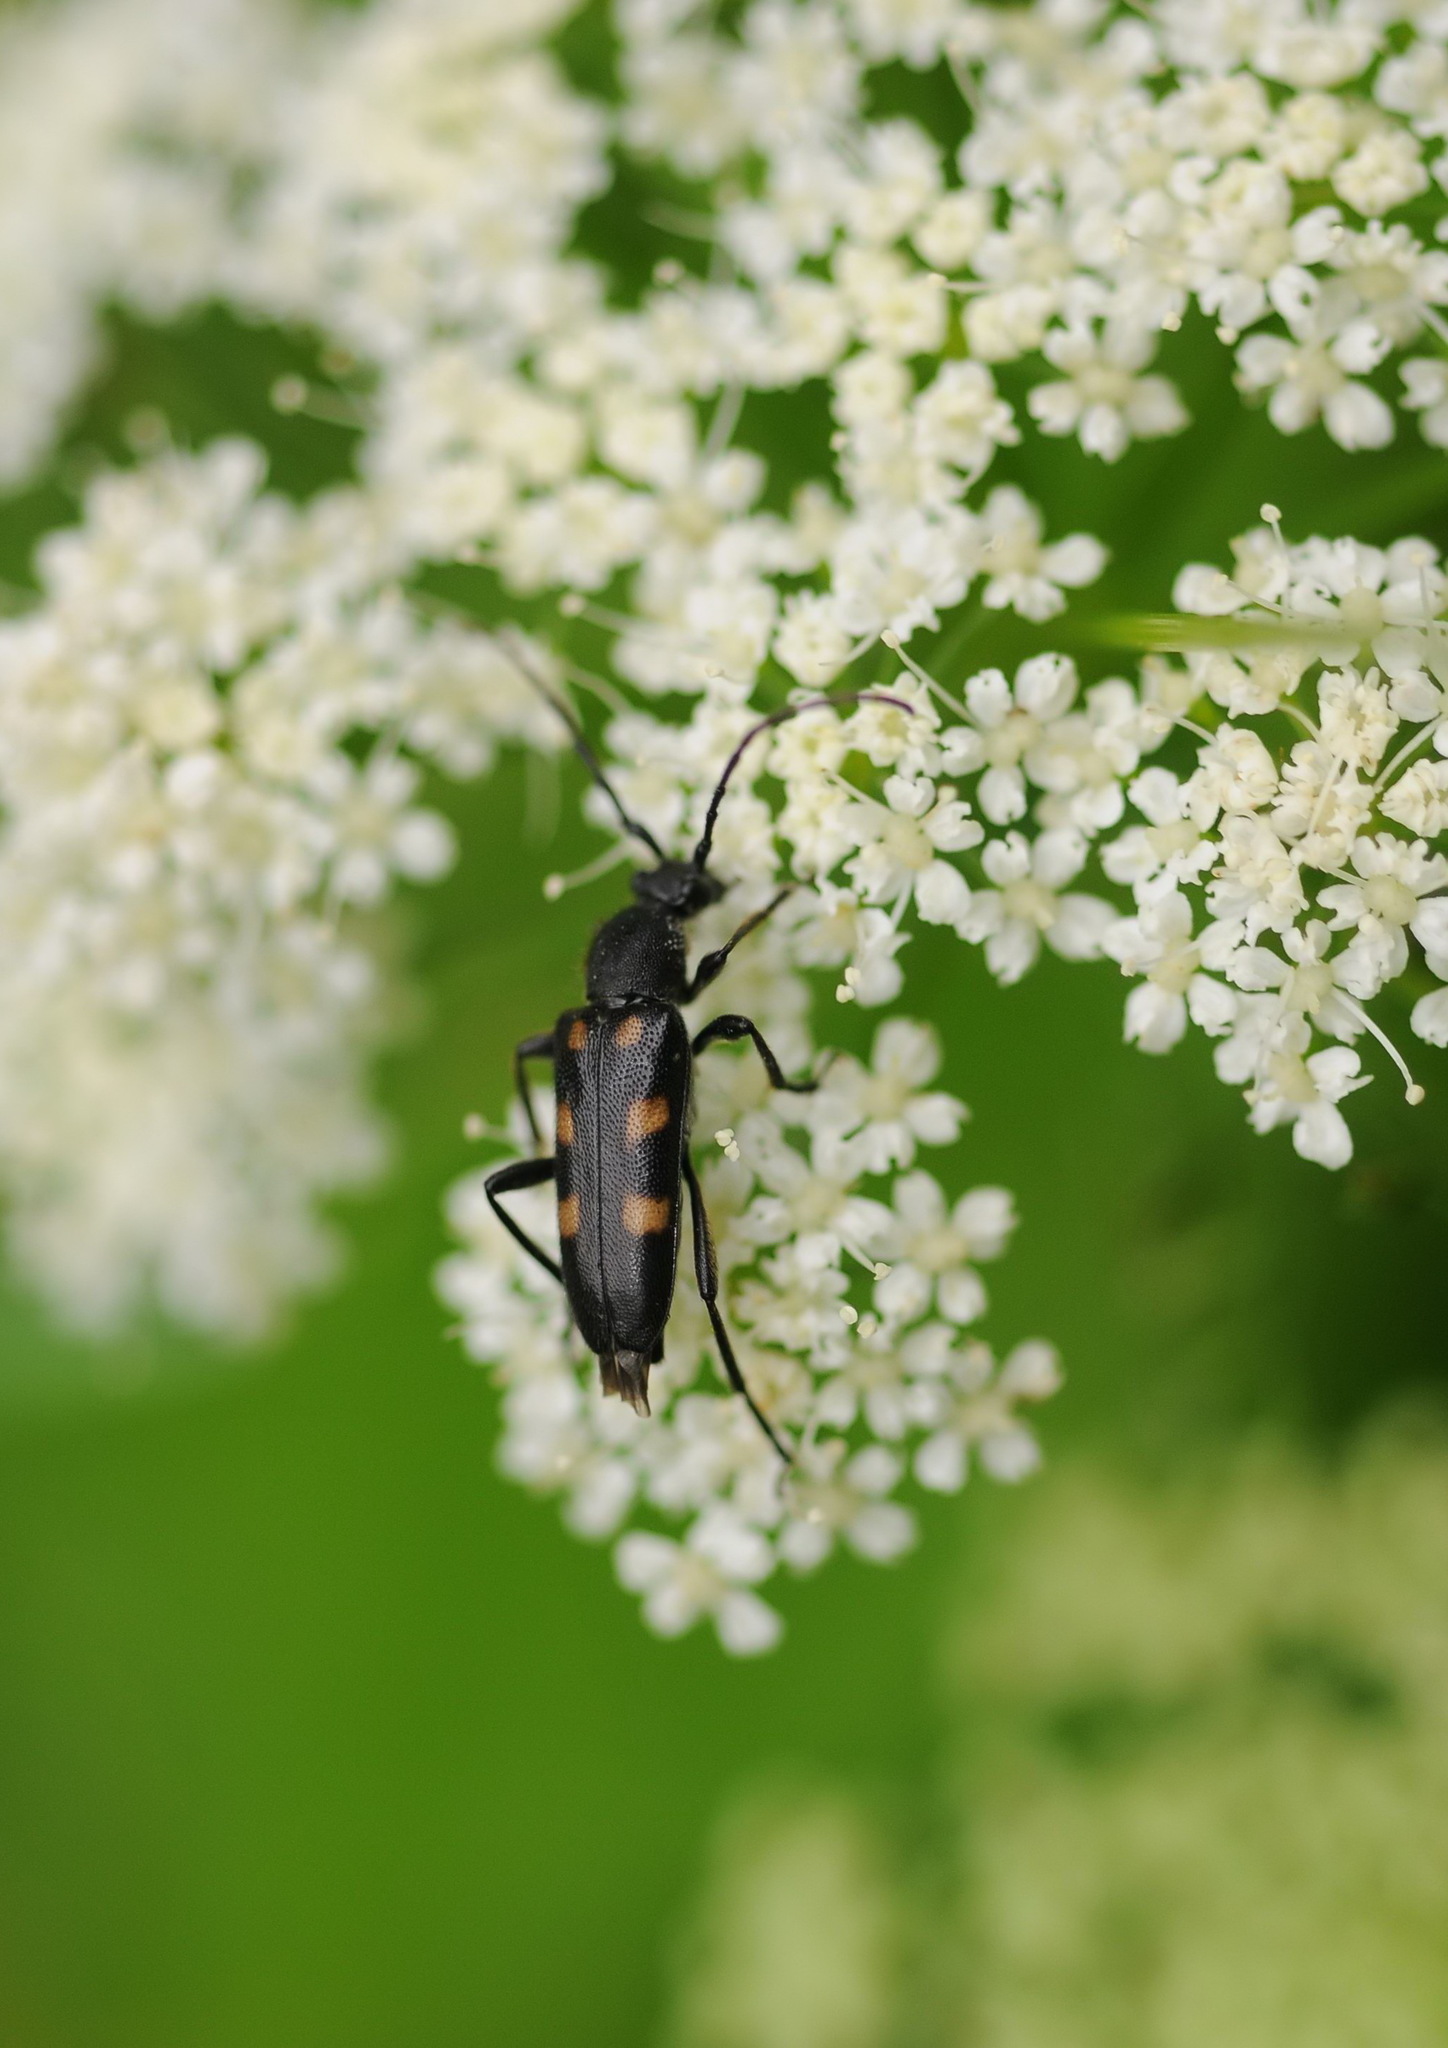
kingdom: Animalia
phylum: Arthropoda
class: Insecta
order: Coleoptera
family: Cerambycidae
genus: Anoplodera
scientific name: Anoplodera sexguttata
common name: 6 spotted longhorn
